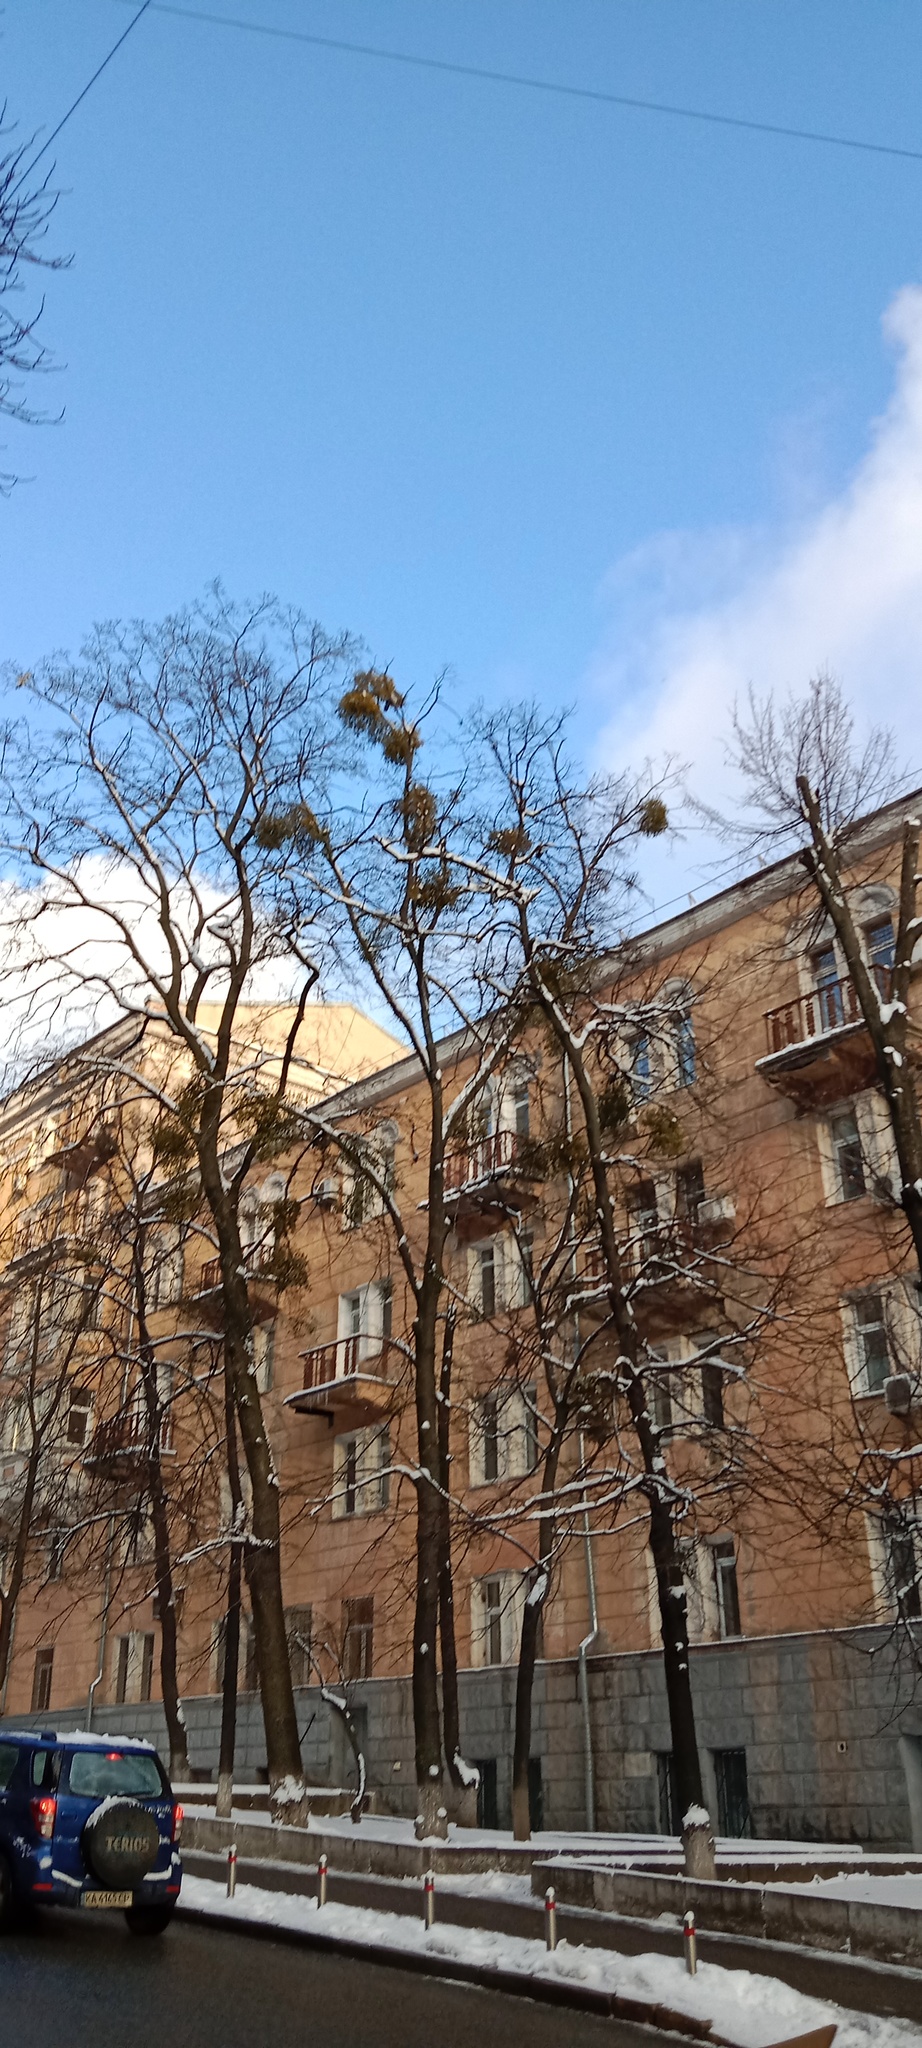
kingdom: Plantae
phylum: Tracheophyta
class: Magnoliopsida
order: Santalales
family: Viscaceae
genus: Viscum
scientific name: Viscum album
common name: Mistletoe
